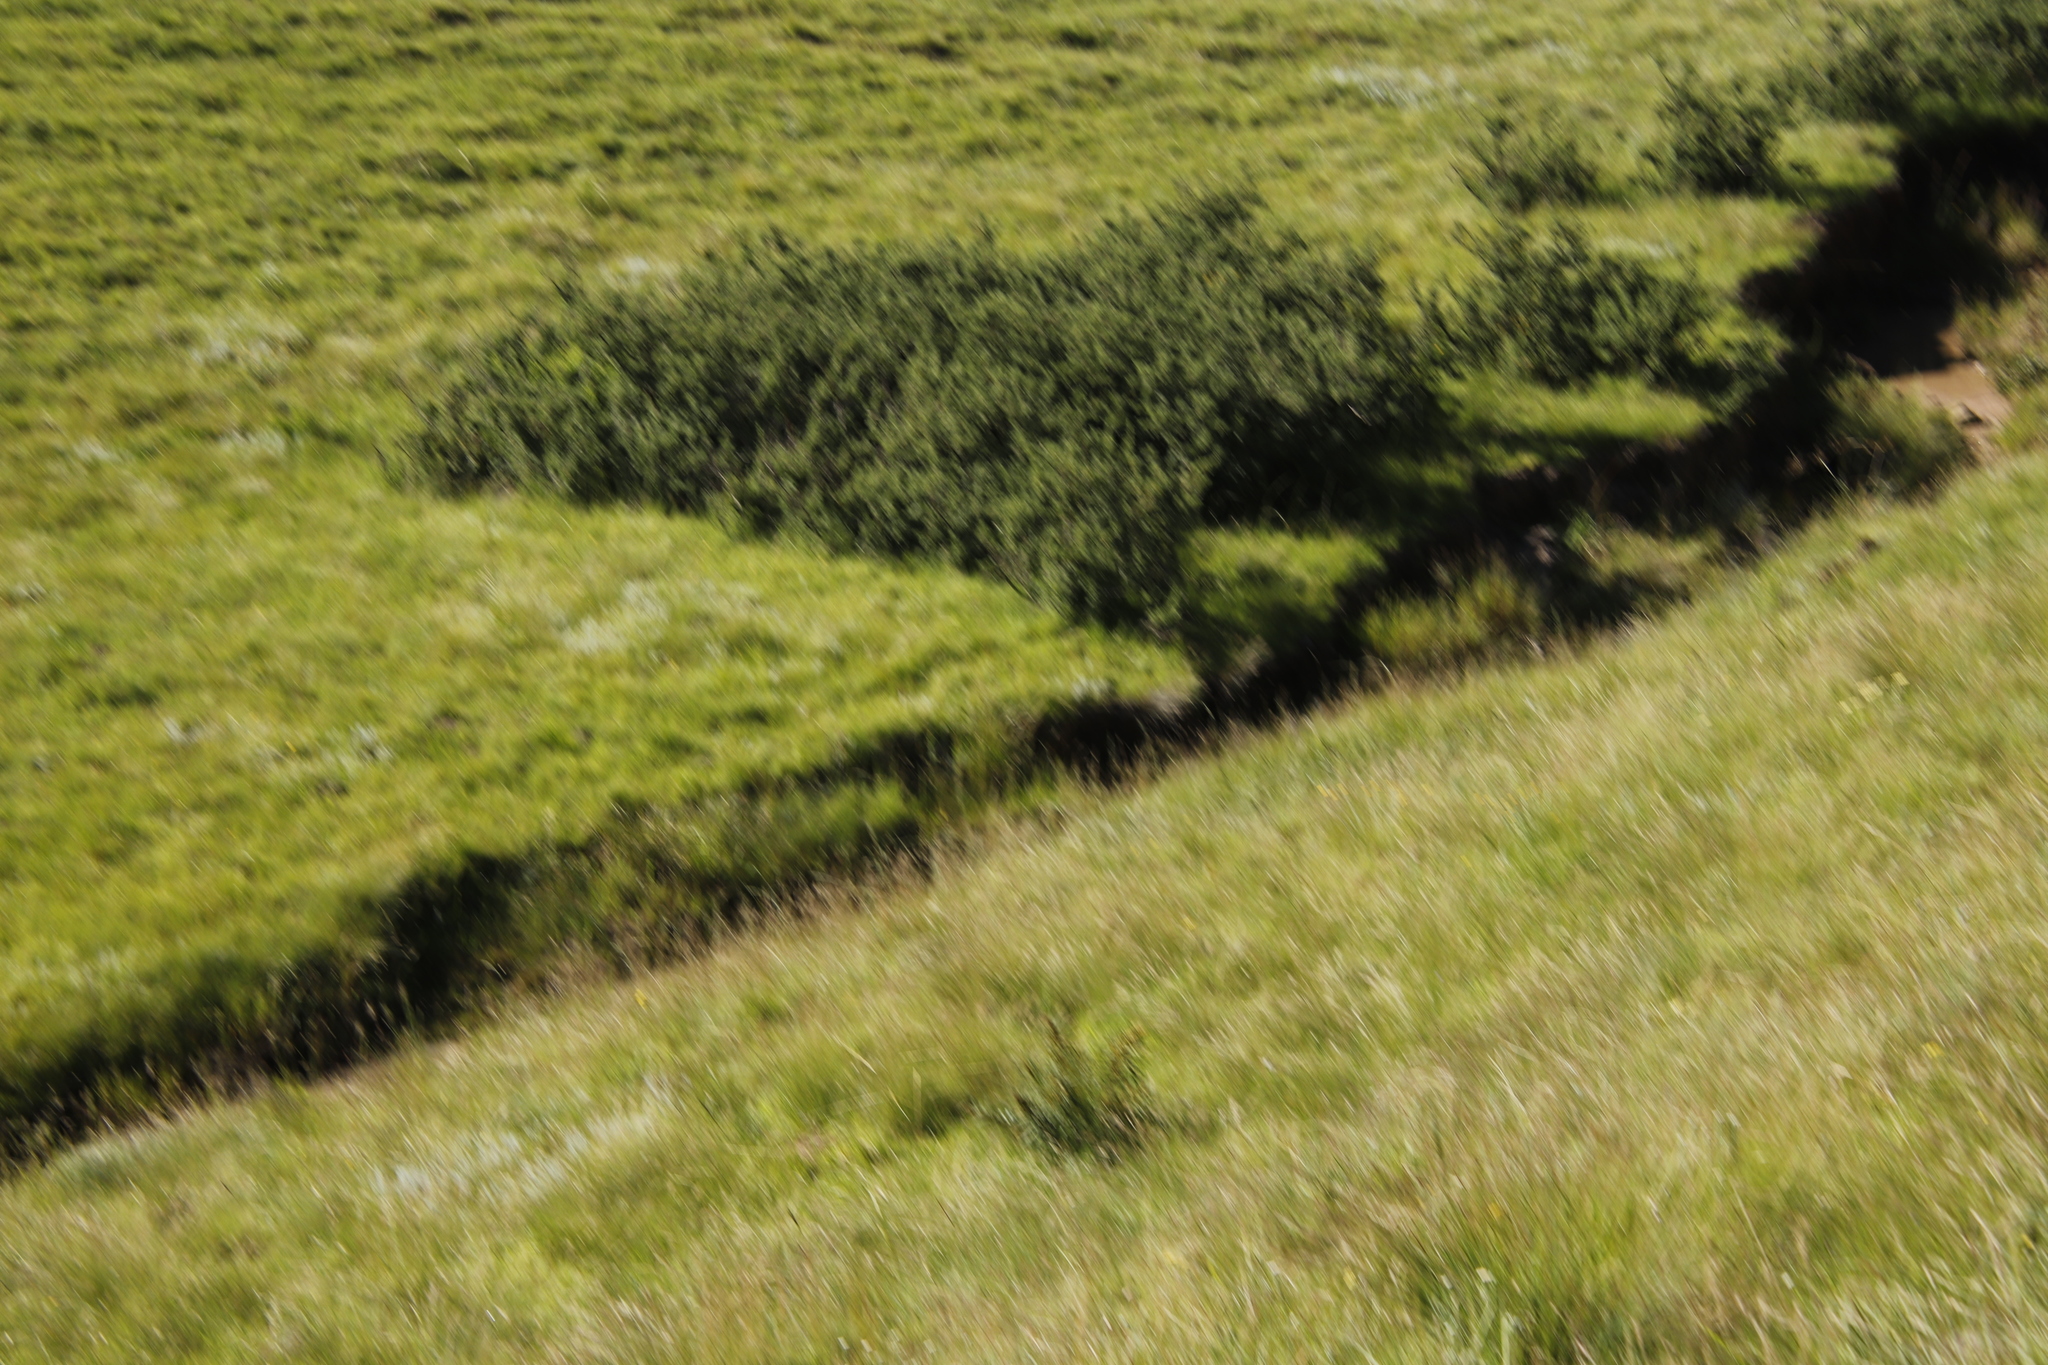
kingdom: Plantae
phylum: Tracheophyta
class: Magnoliopsida
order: Rosales
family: Rosaceae
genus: Leucosidea
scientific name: Leucosidea sericea
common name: Oldwood
